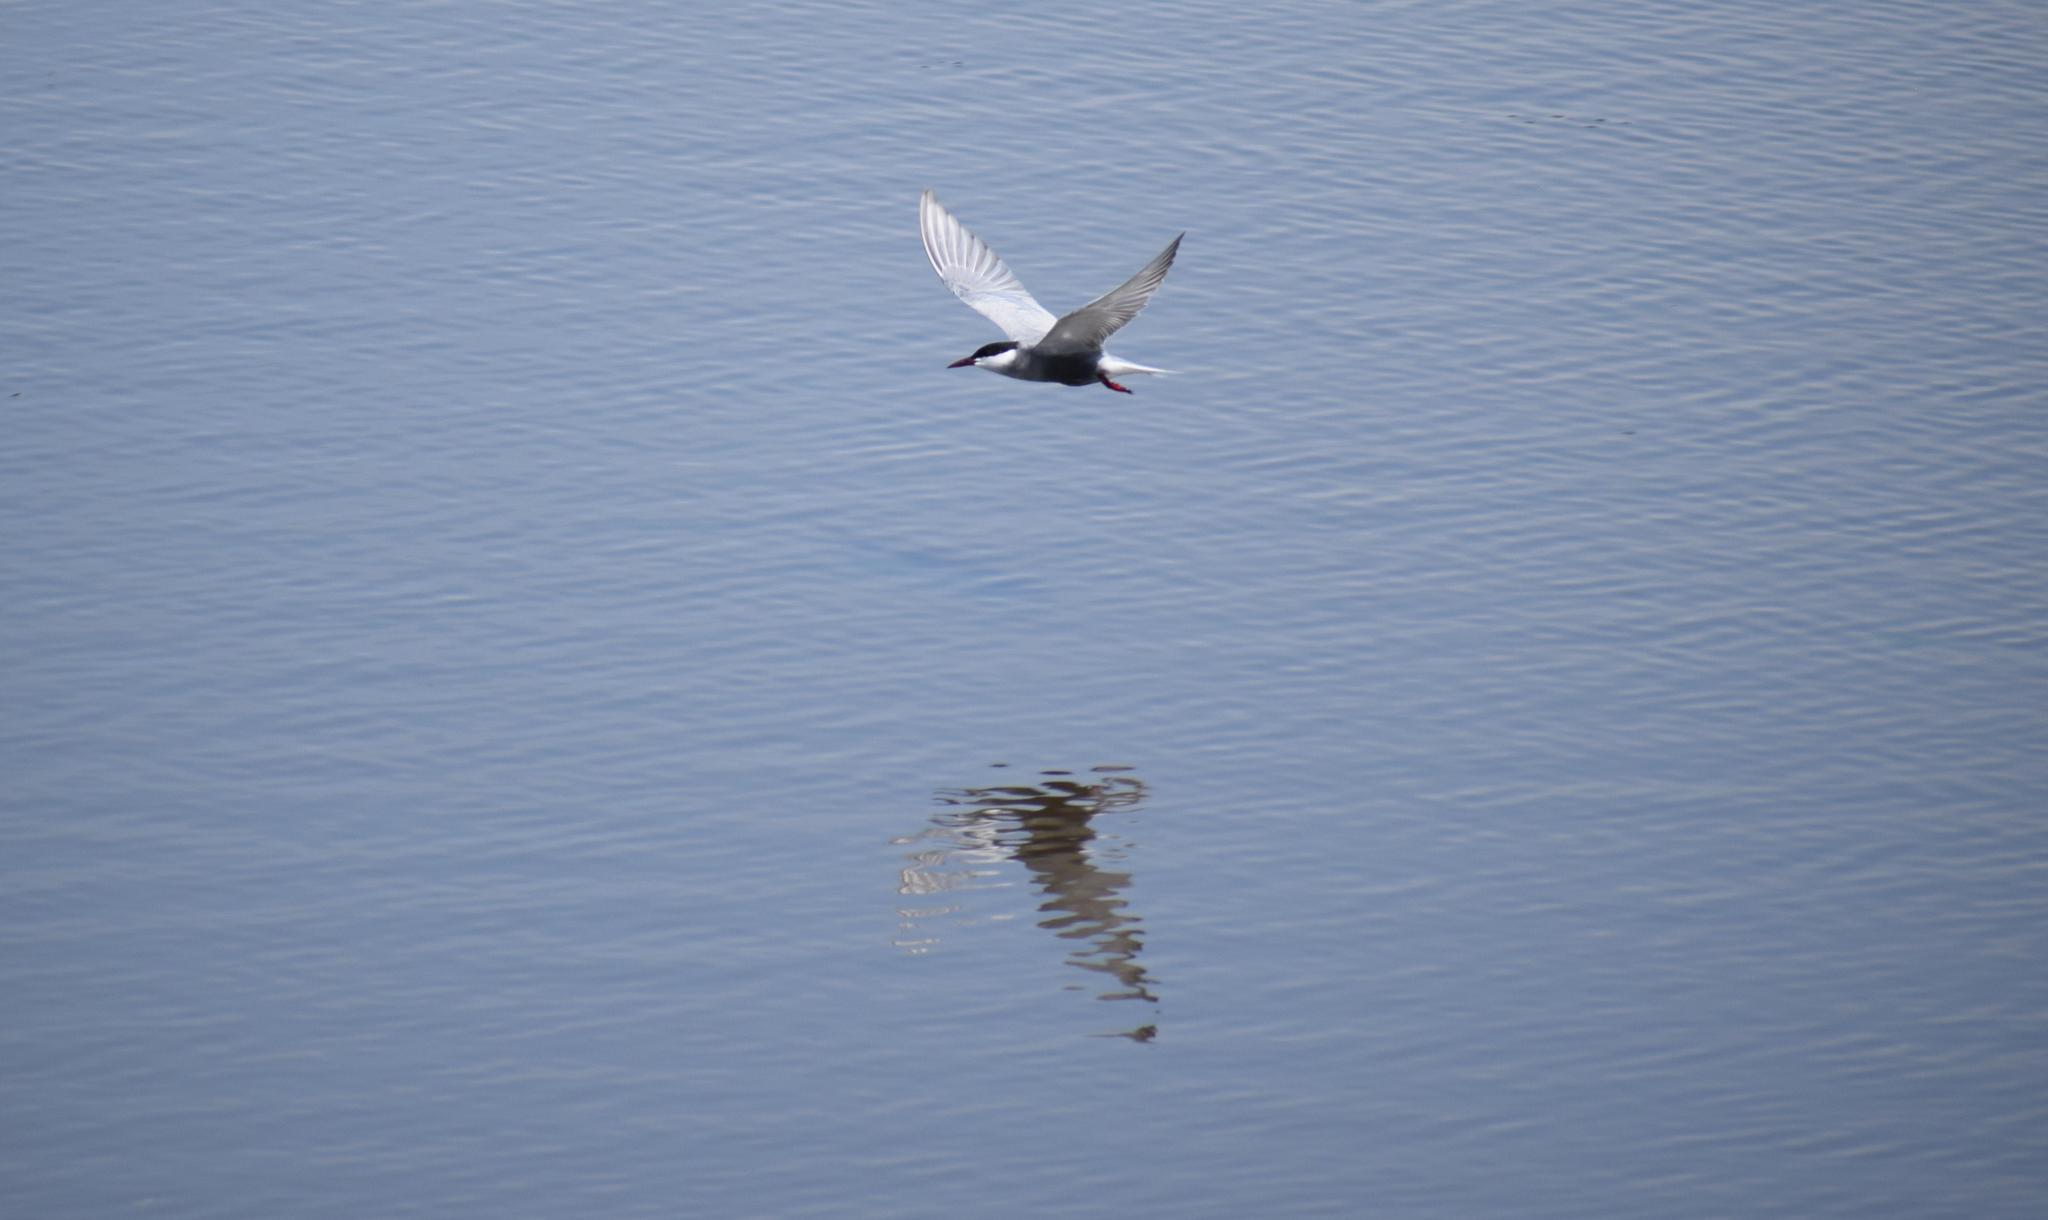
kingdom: Animalia
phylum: Chordata
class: Aves
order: Charadriiformes
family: Laridae
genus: Chlidonias
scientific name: Chlidonias hybrida
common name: Whiskered tern
